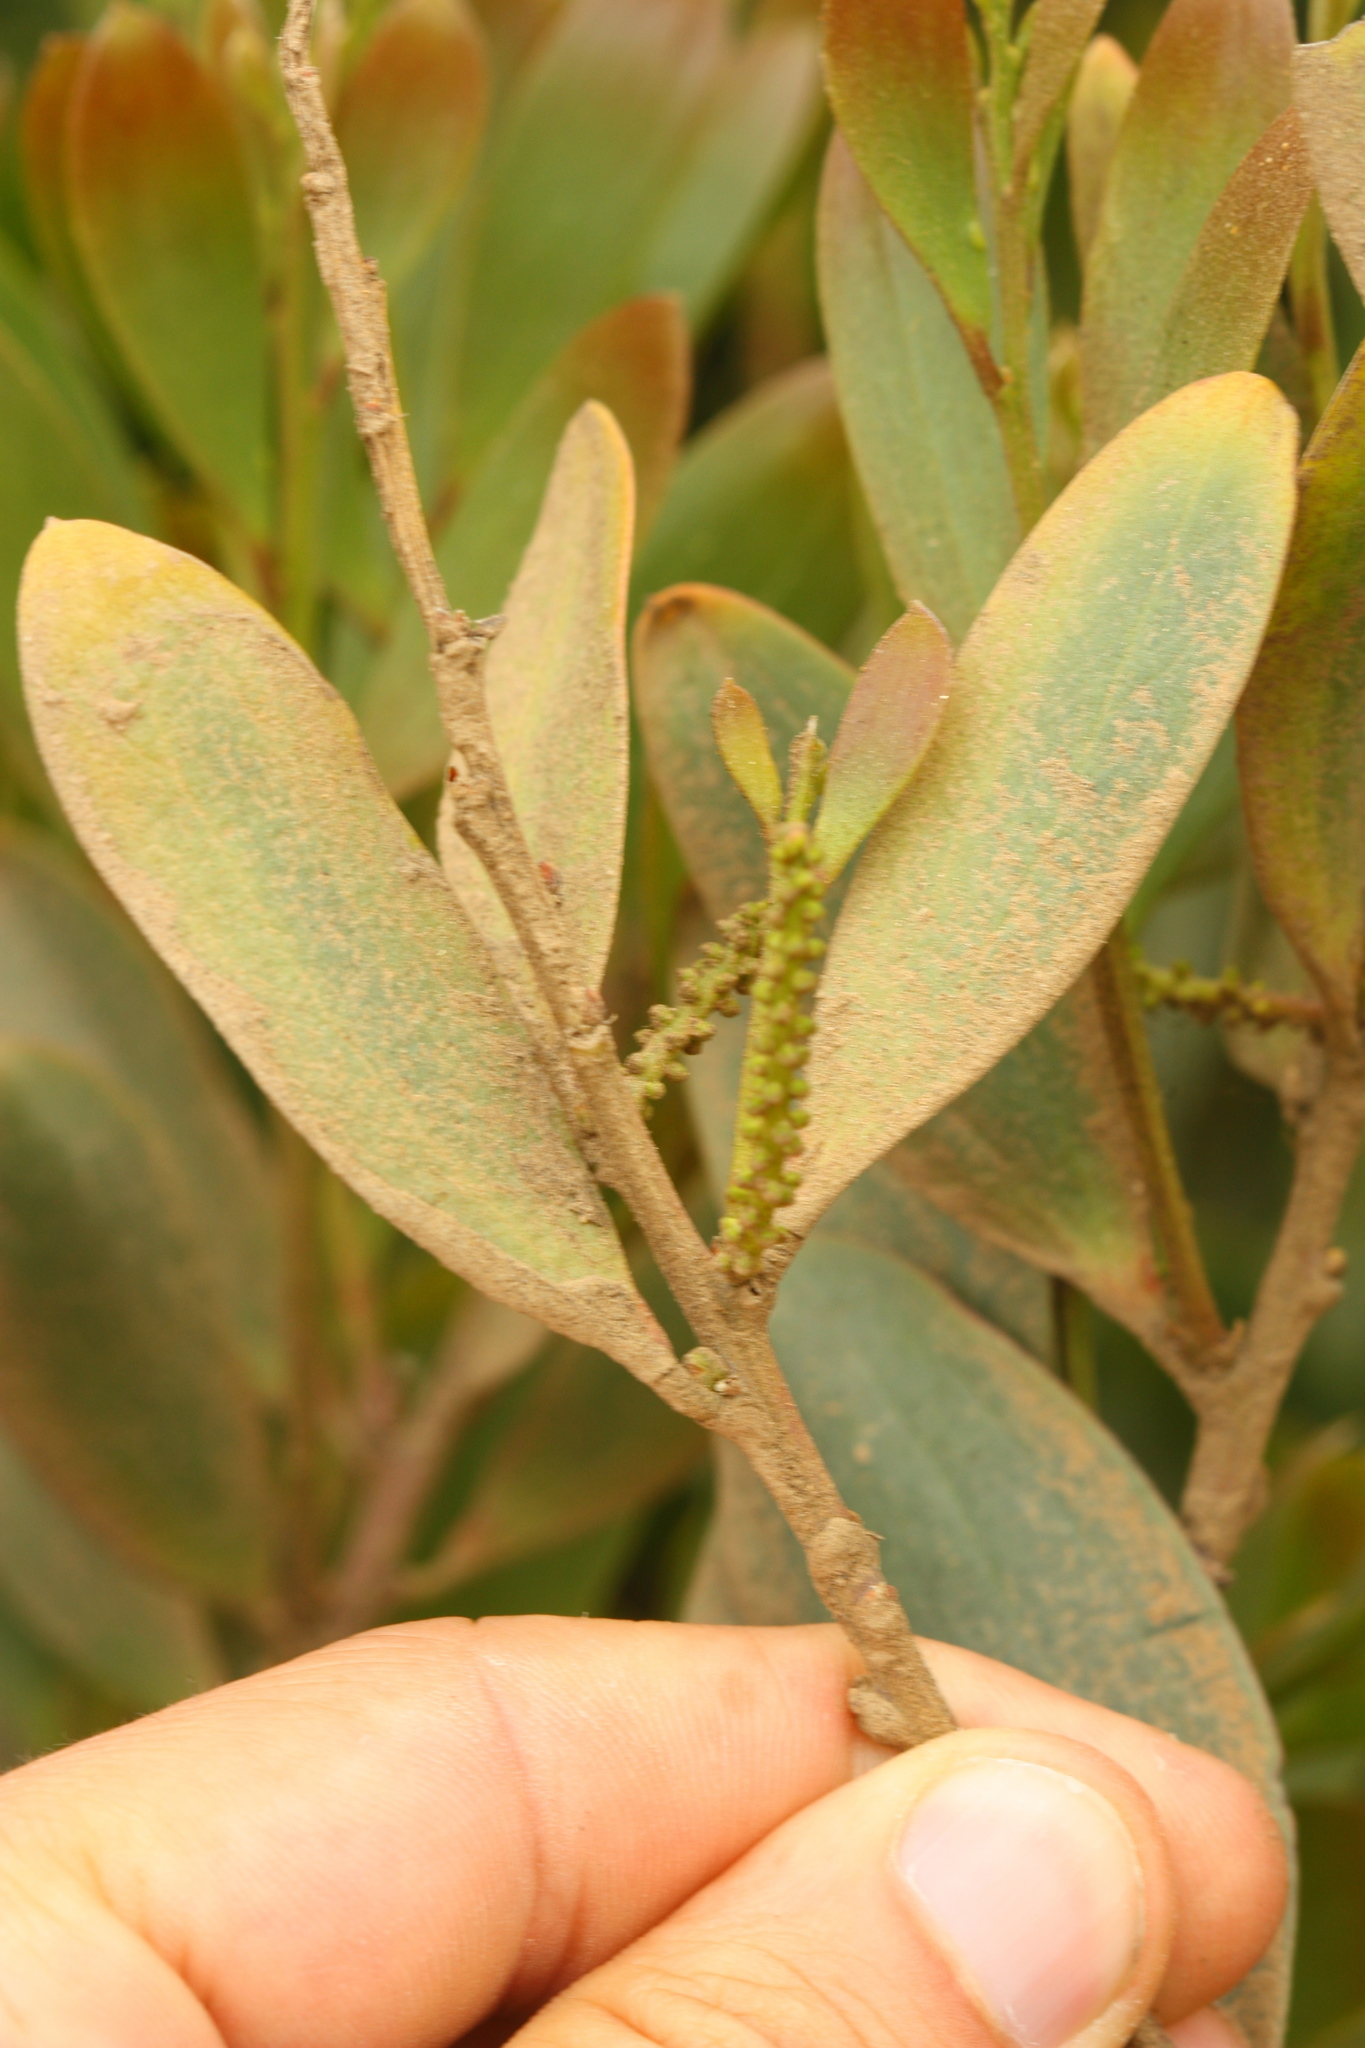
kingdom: Plantae
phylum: Tracheophyta
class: Magnoliopsida
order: Fabales
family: Fabaceae
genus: Acacia
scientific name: Acacia longifolia
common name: Sydney golden wattle
